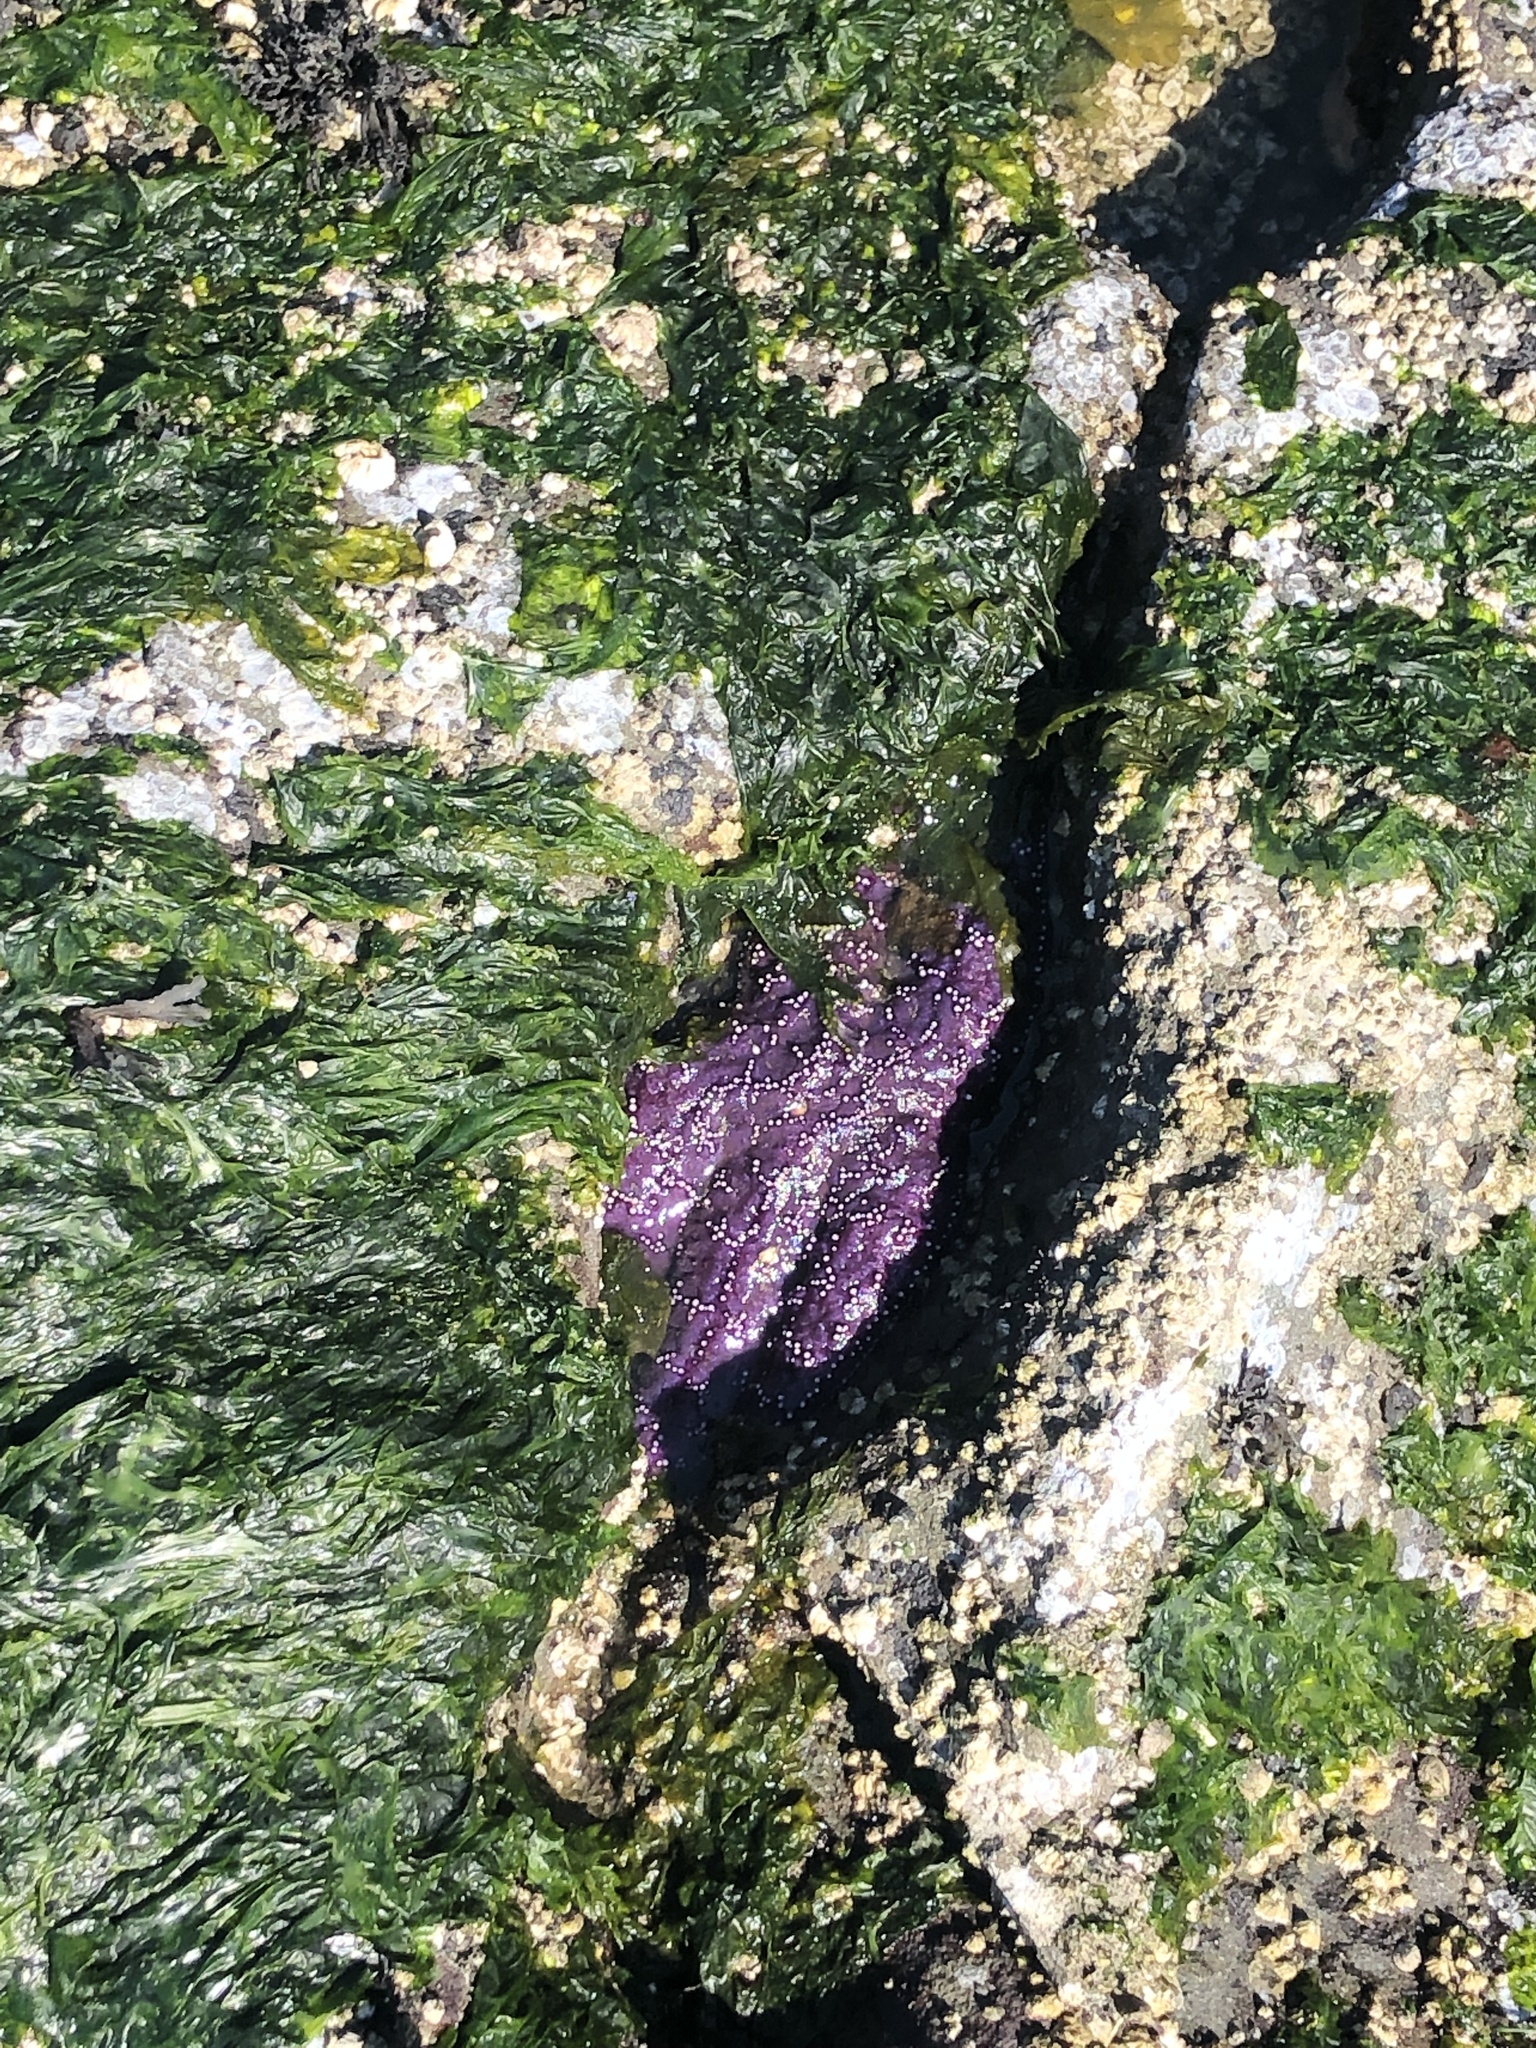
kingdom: Animalia
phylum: Echinodermata
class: Asteroidea
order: Forcipulatida
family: Asteriidae
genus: Pisaster
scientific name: Pisaster ochraceus
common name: Ochre stars
